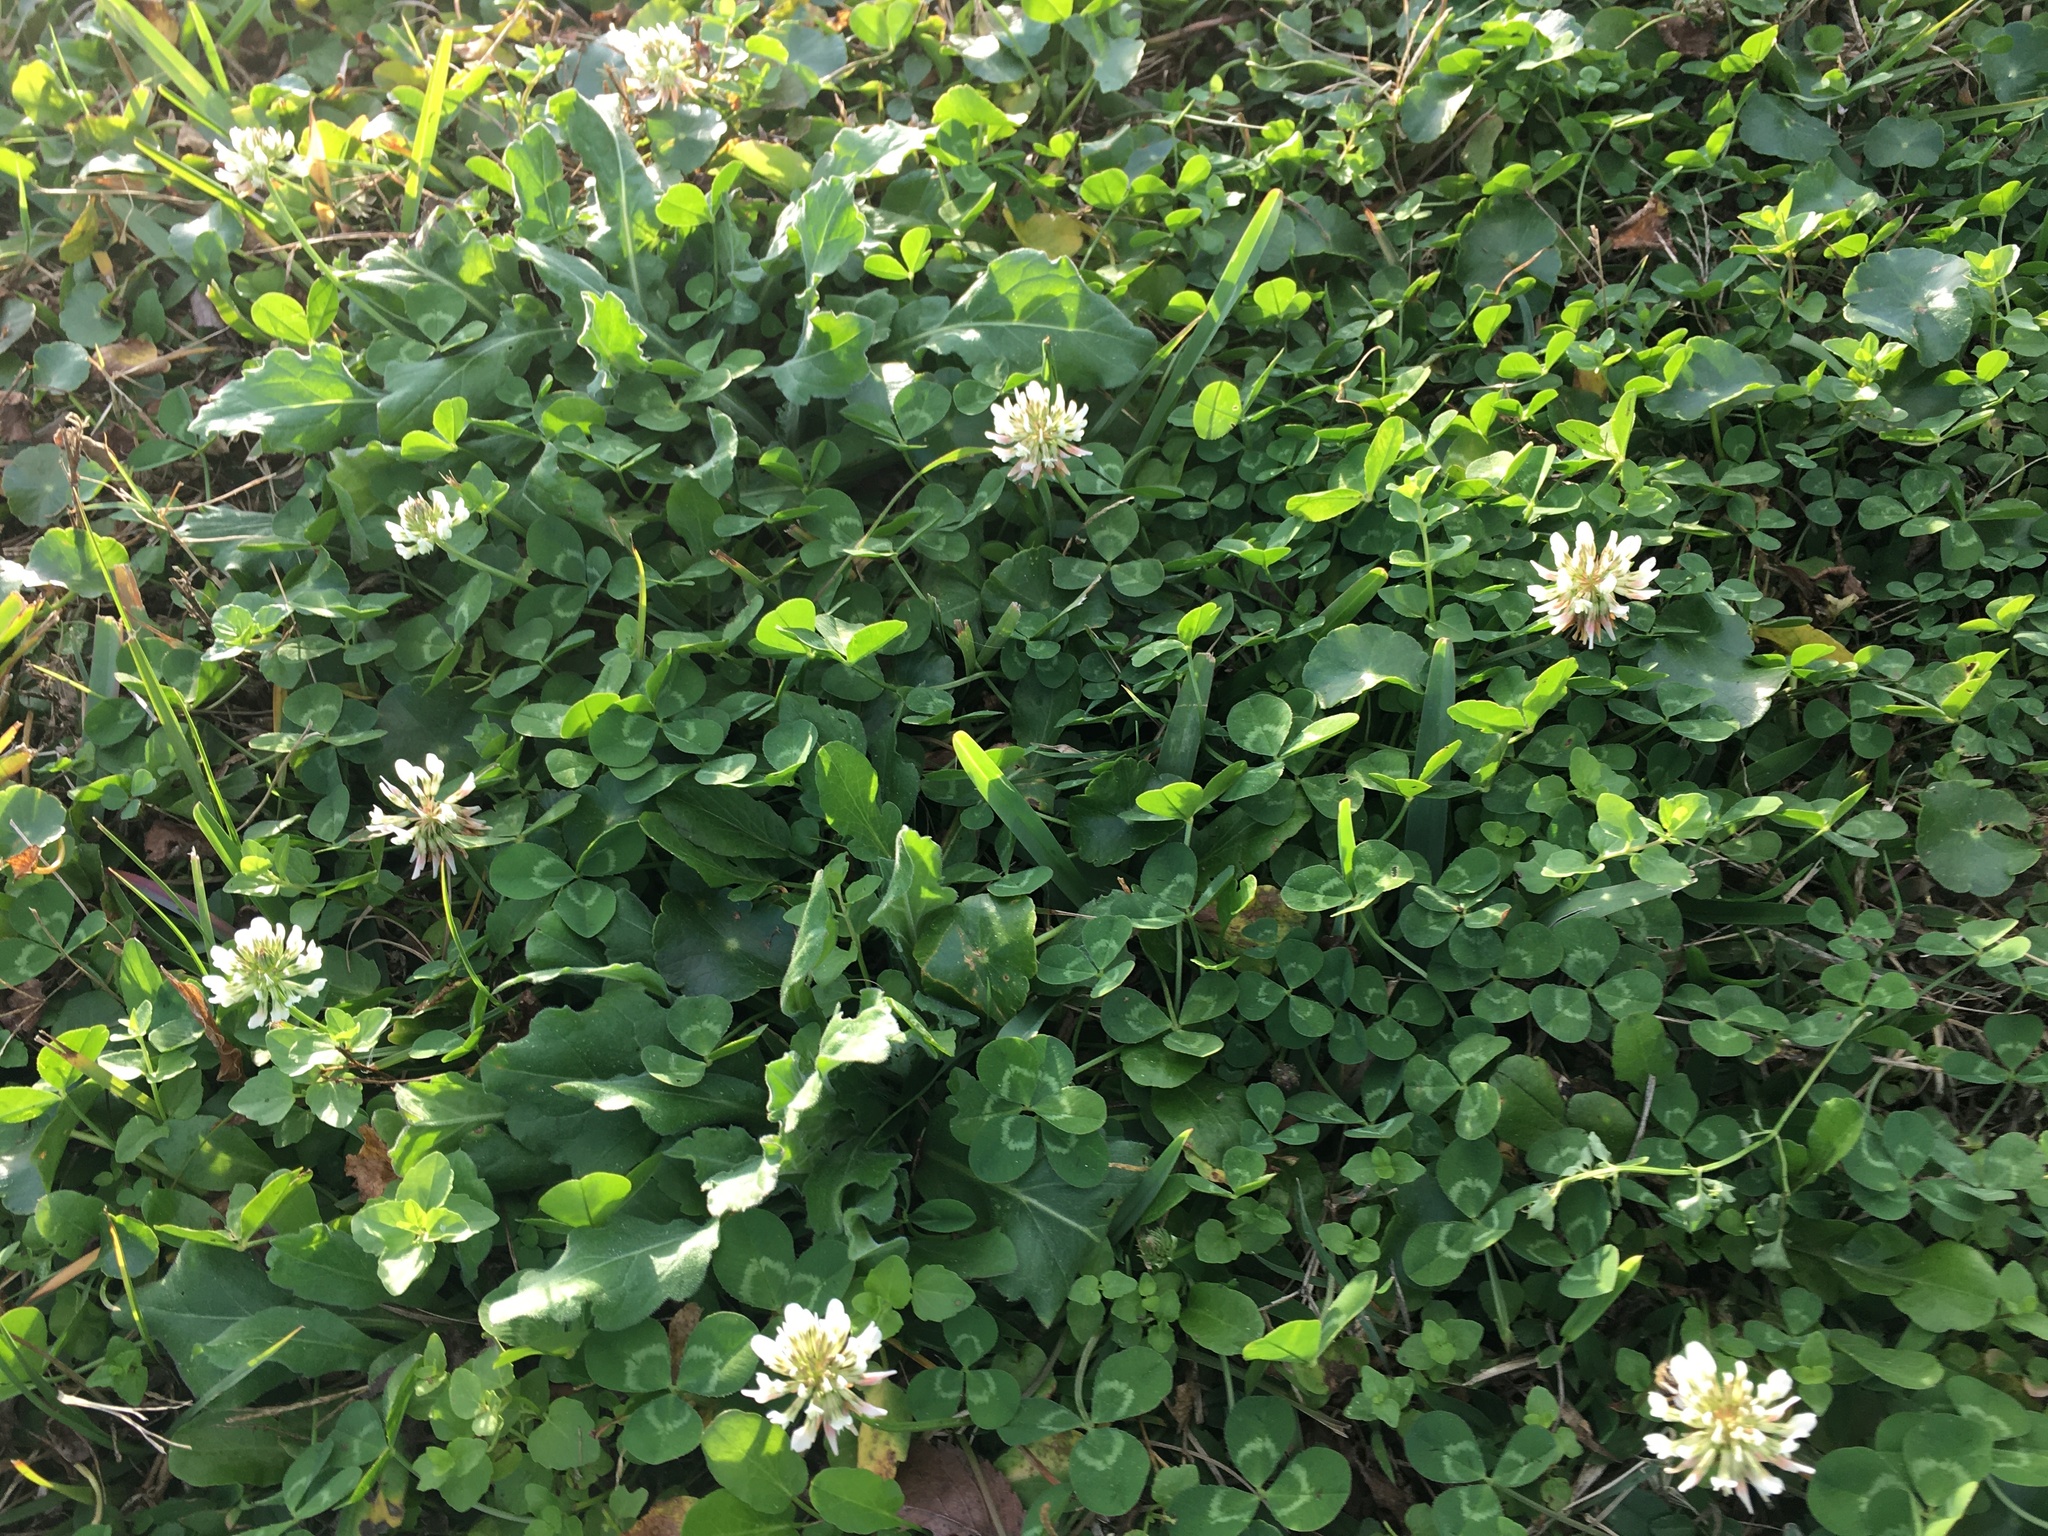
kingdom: Plantae
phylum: Tracheophyta
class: Magnoliopsida
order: Fabales
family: Fabaceae
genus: Trifolium
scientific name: Trifolium repens
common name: White clover
